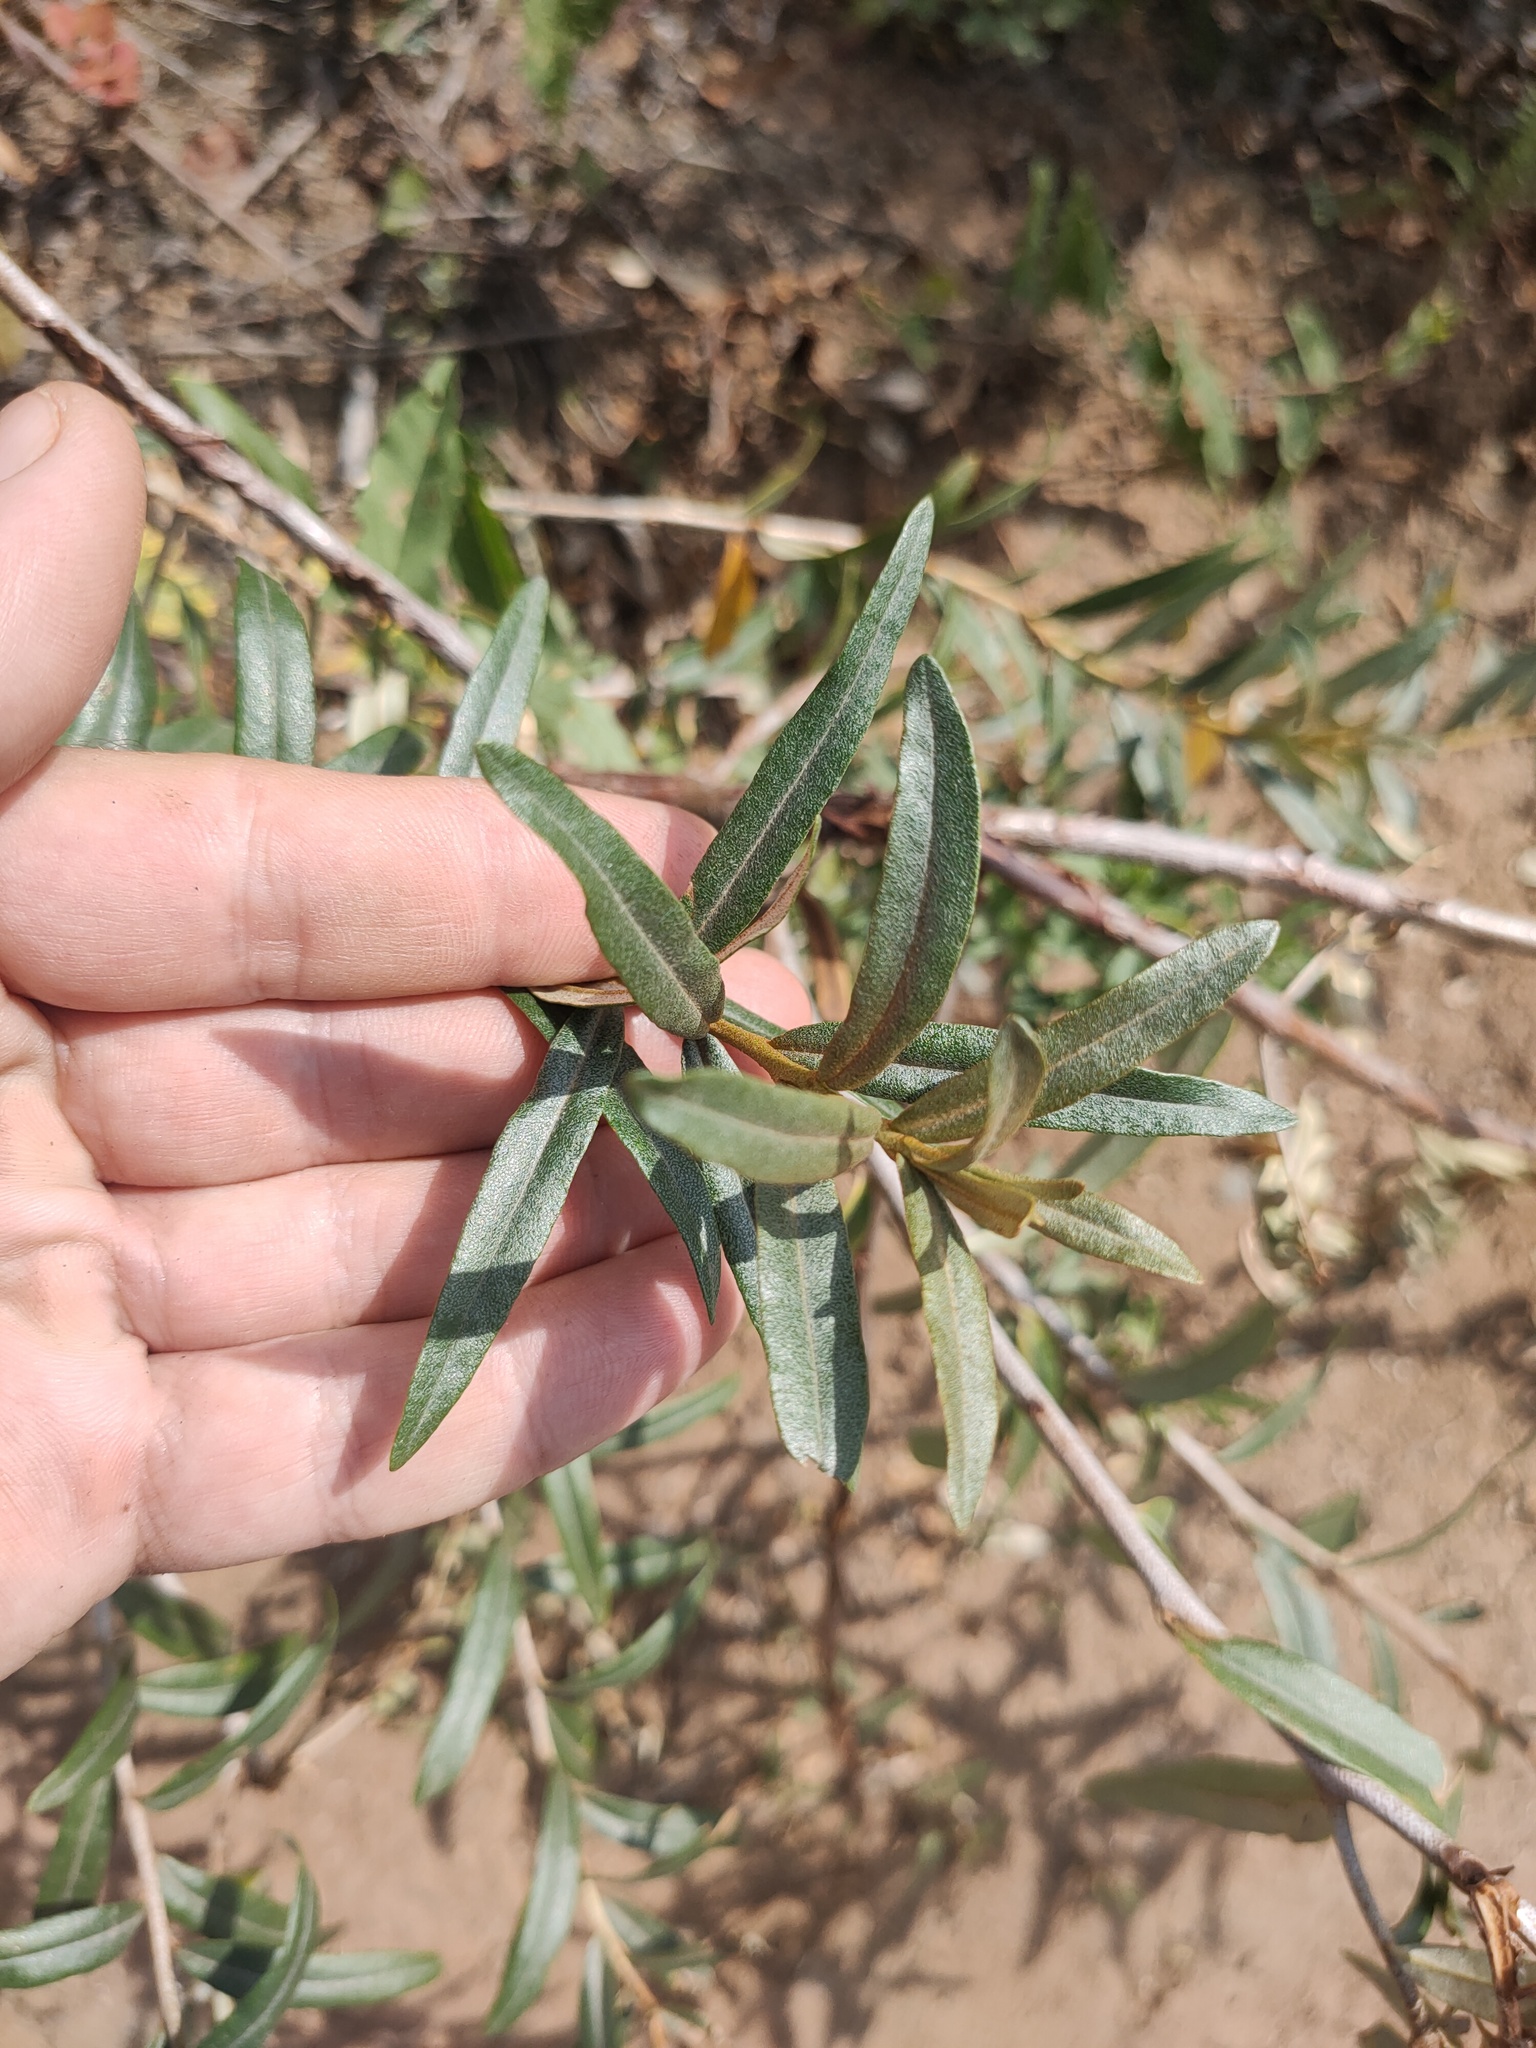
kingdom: Plantae
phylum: Tracheophyta
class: Magnoliopsida
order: Rosales
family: Elaeagnaceae
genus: Hippophae
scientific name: Hippophae rhamnoides
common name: Sea-buckthorn
